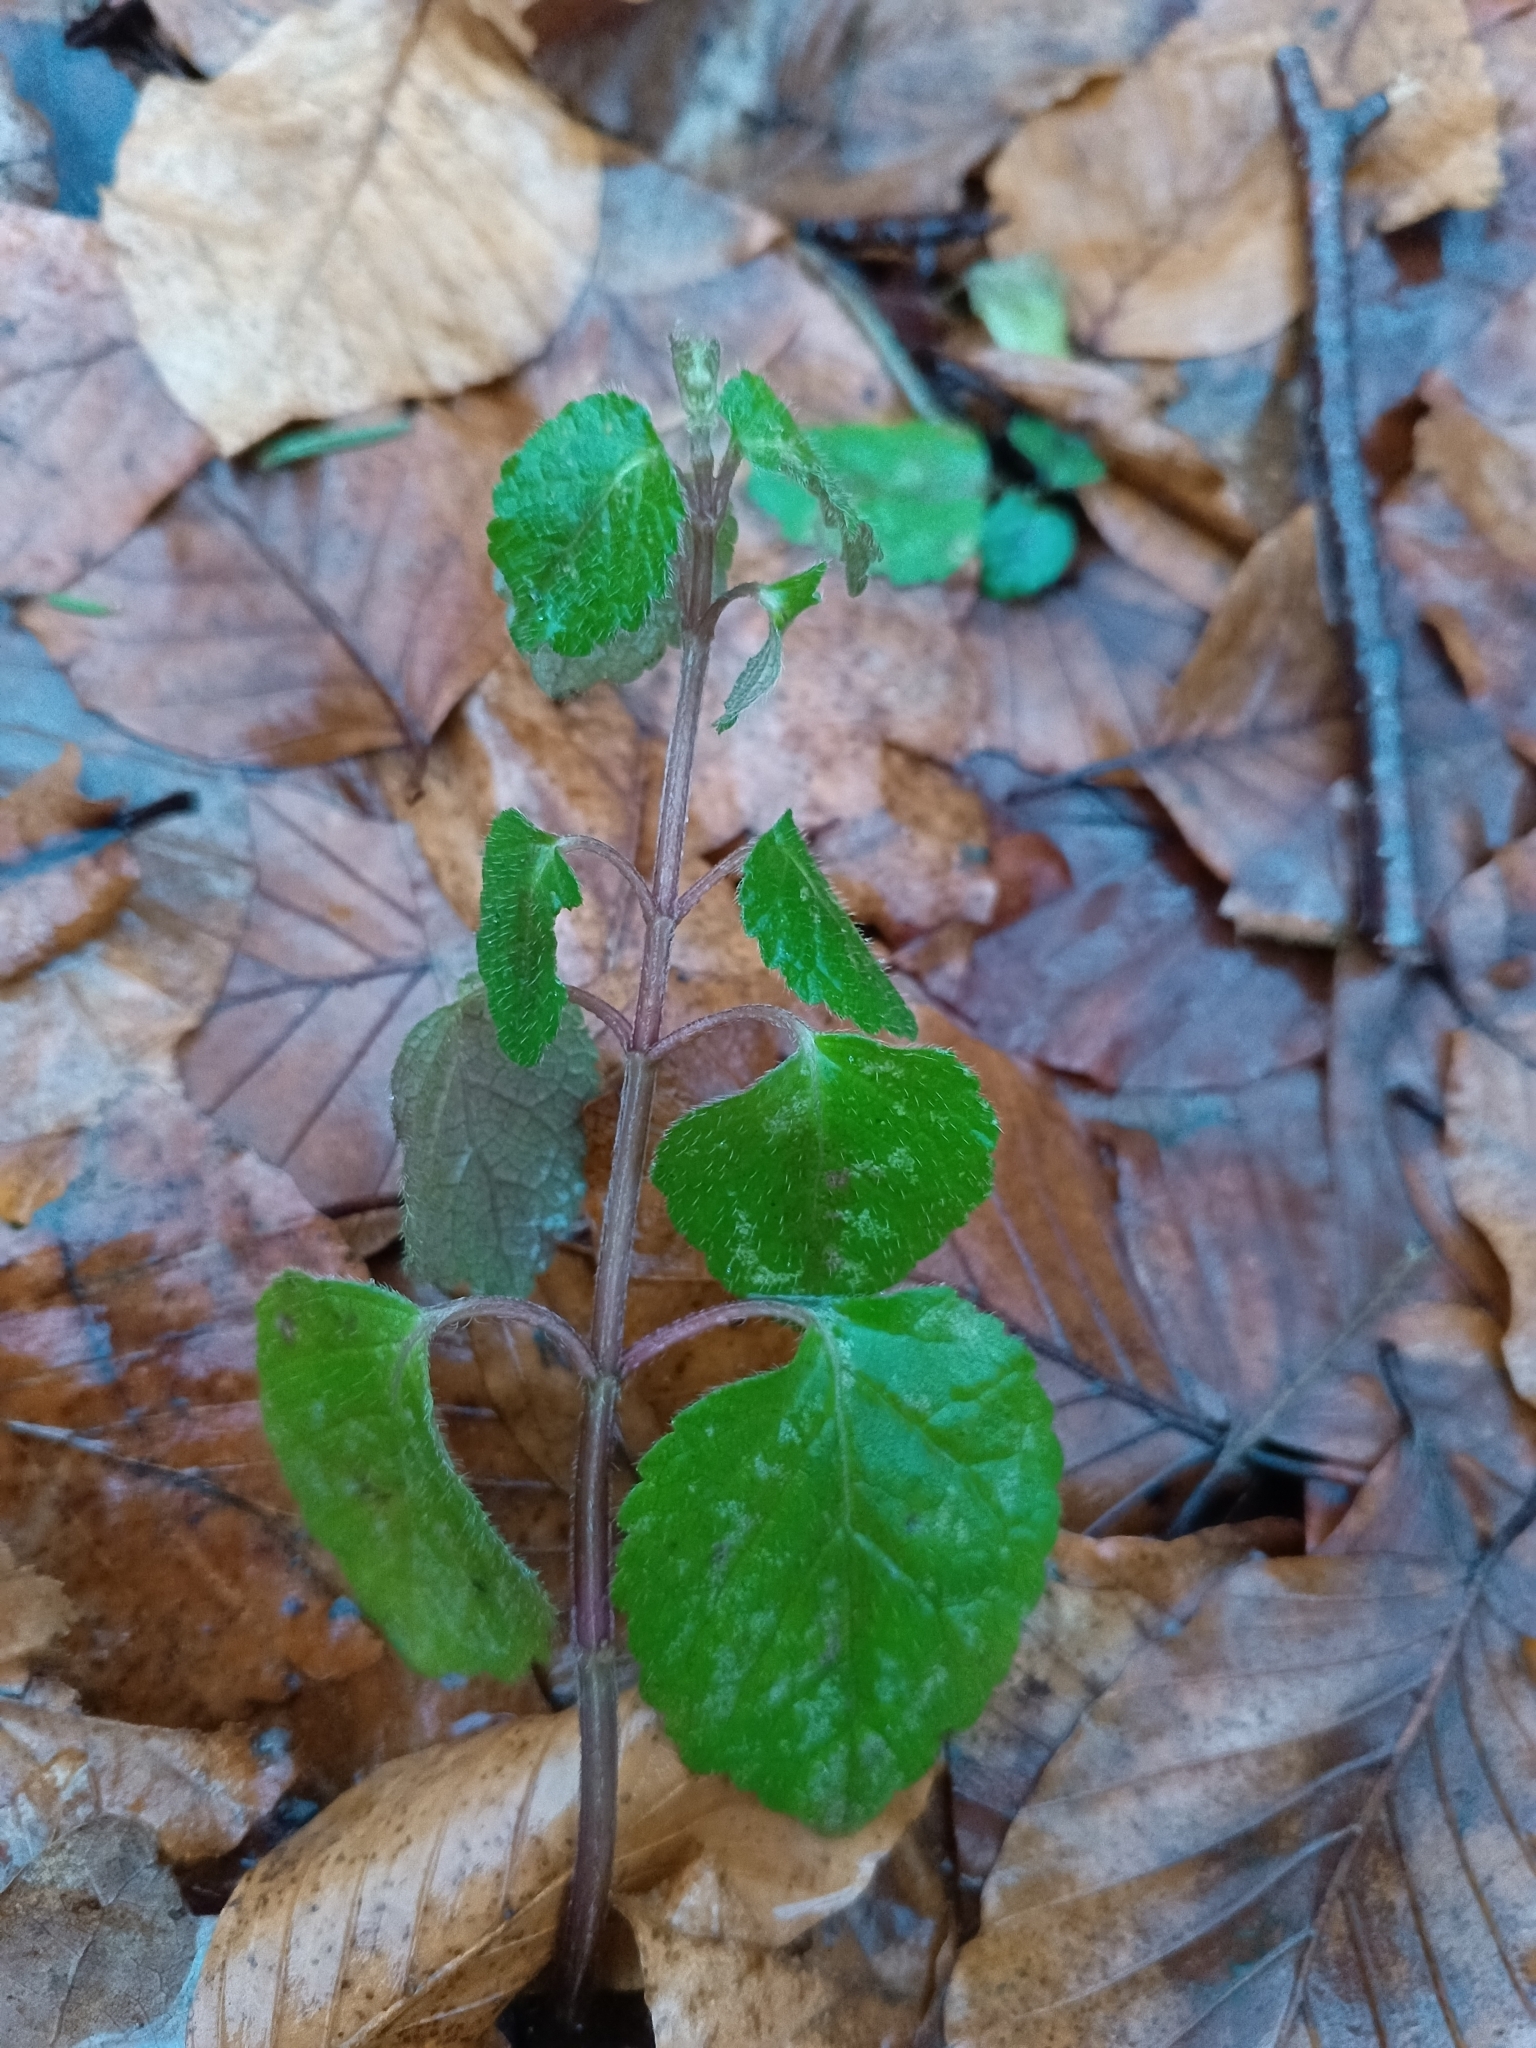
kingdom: Plantae
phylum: Tracheophyta
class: Magnoliopsida
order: Lamiales
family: Lamiaceae
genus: Lamium
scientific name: Lamium galeobdolon
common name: Yellow archangel
